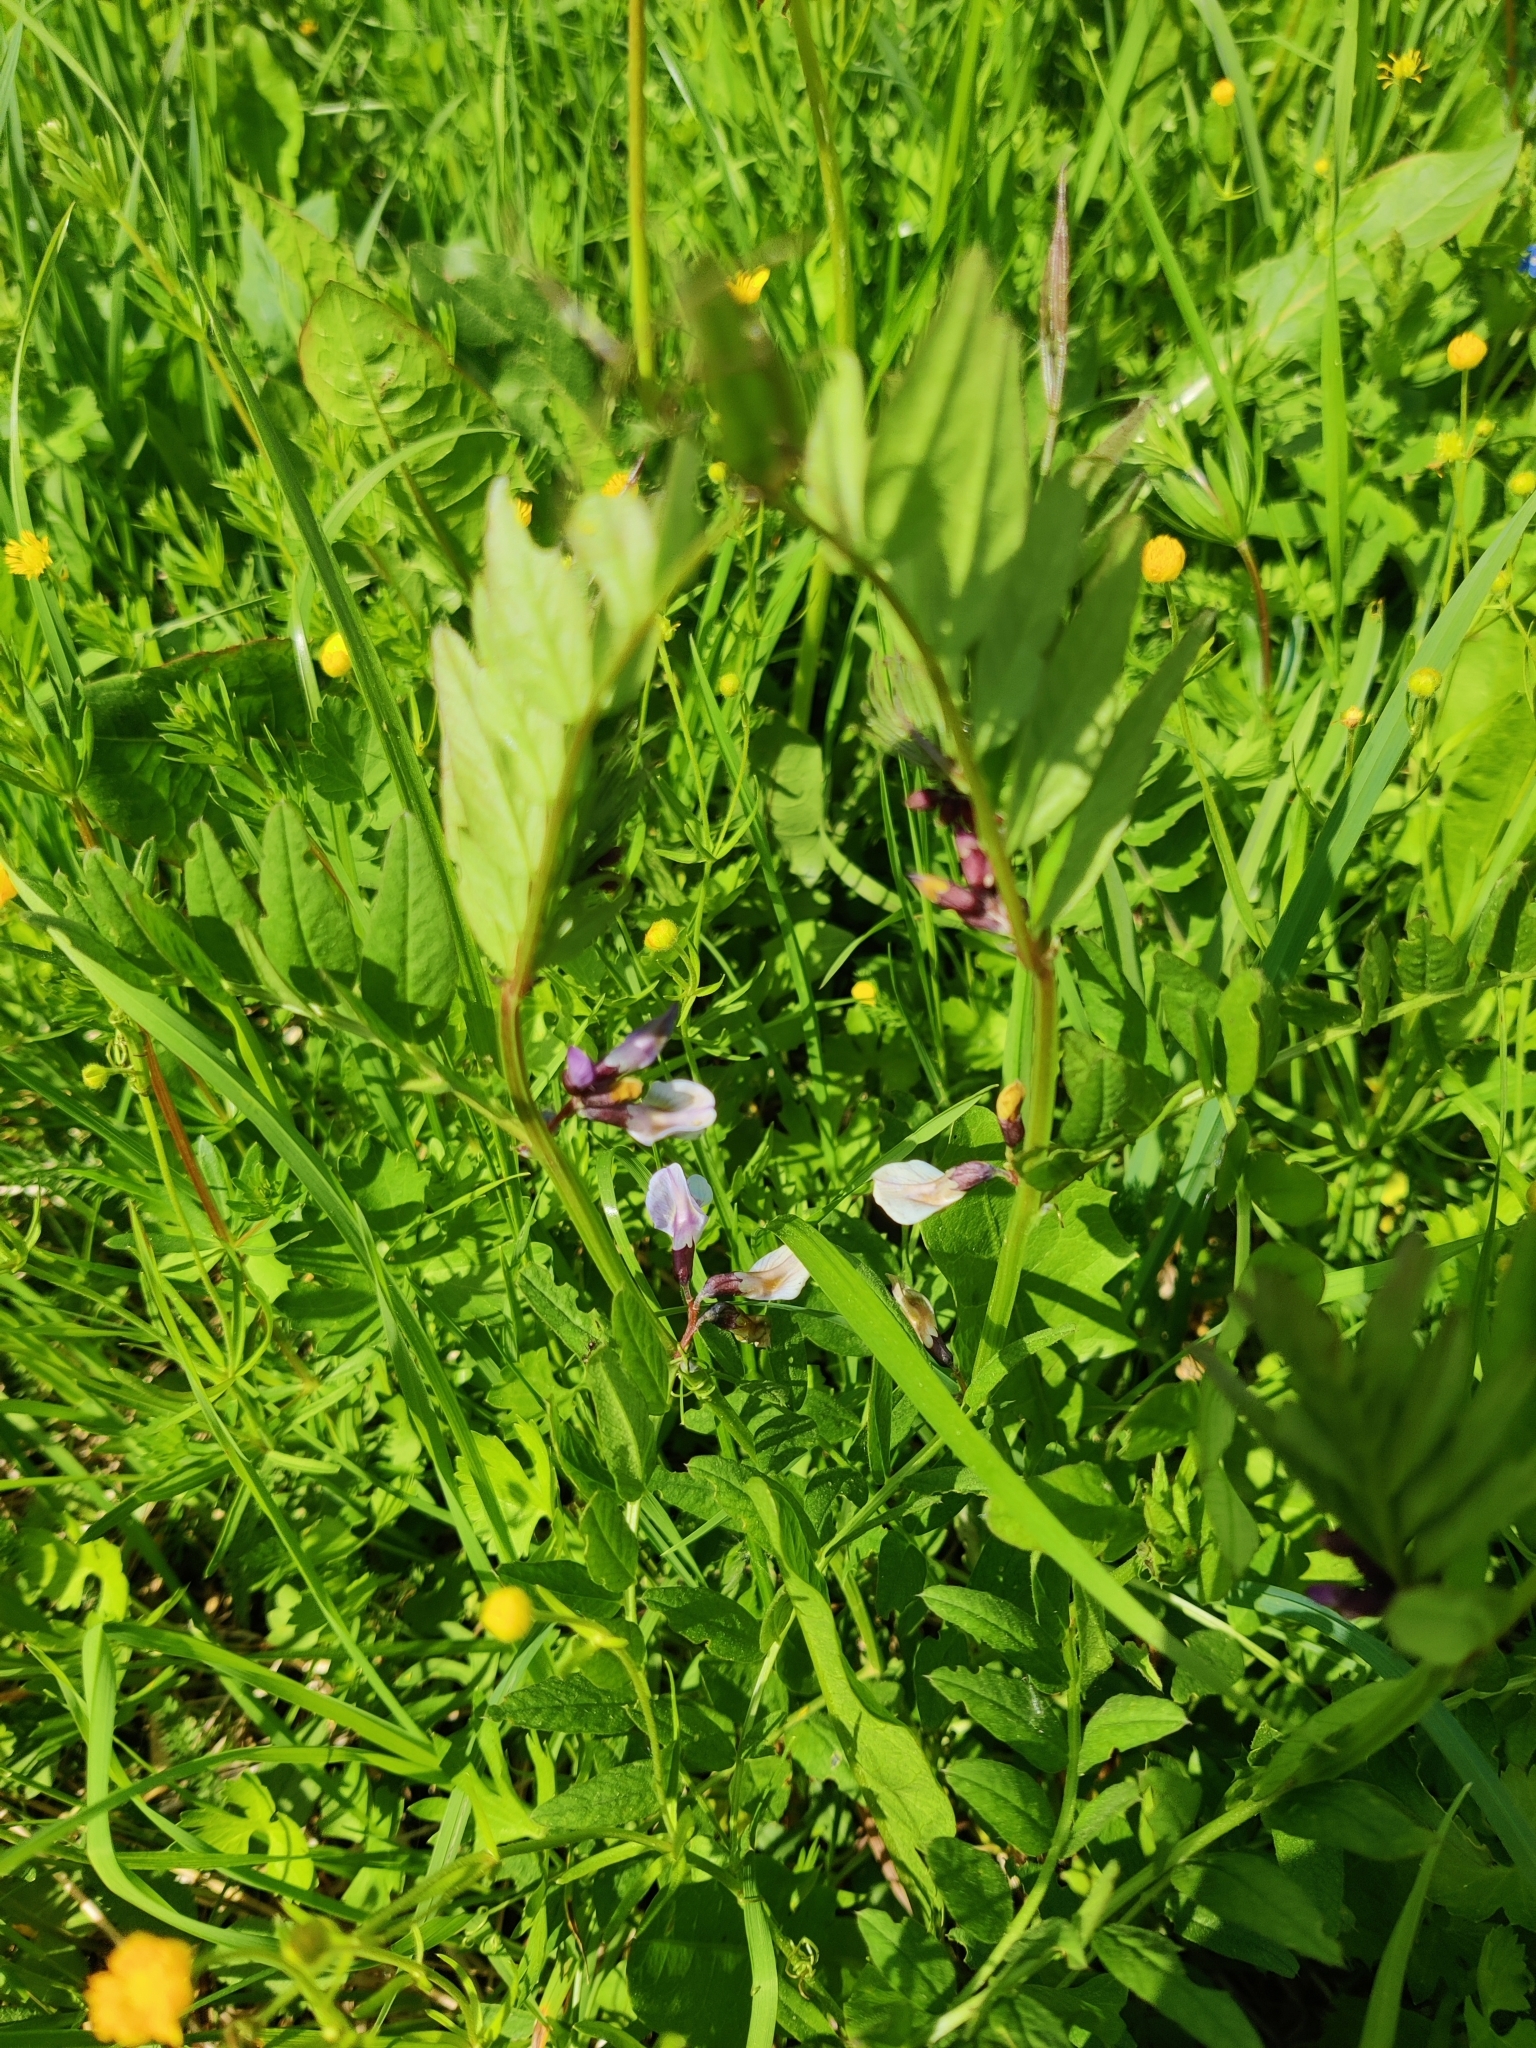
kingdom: Plantae
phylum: Tracheophyta
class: Magnoliopsida
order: Fabales
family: Fabaceae
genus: Vicia
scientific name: Vicia sepium
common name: Bush vetch
